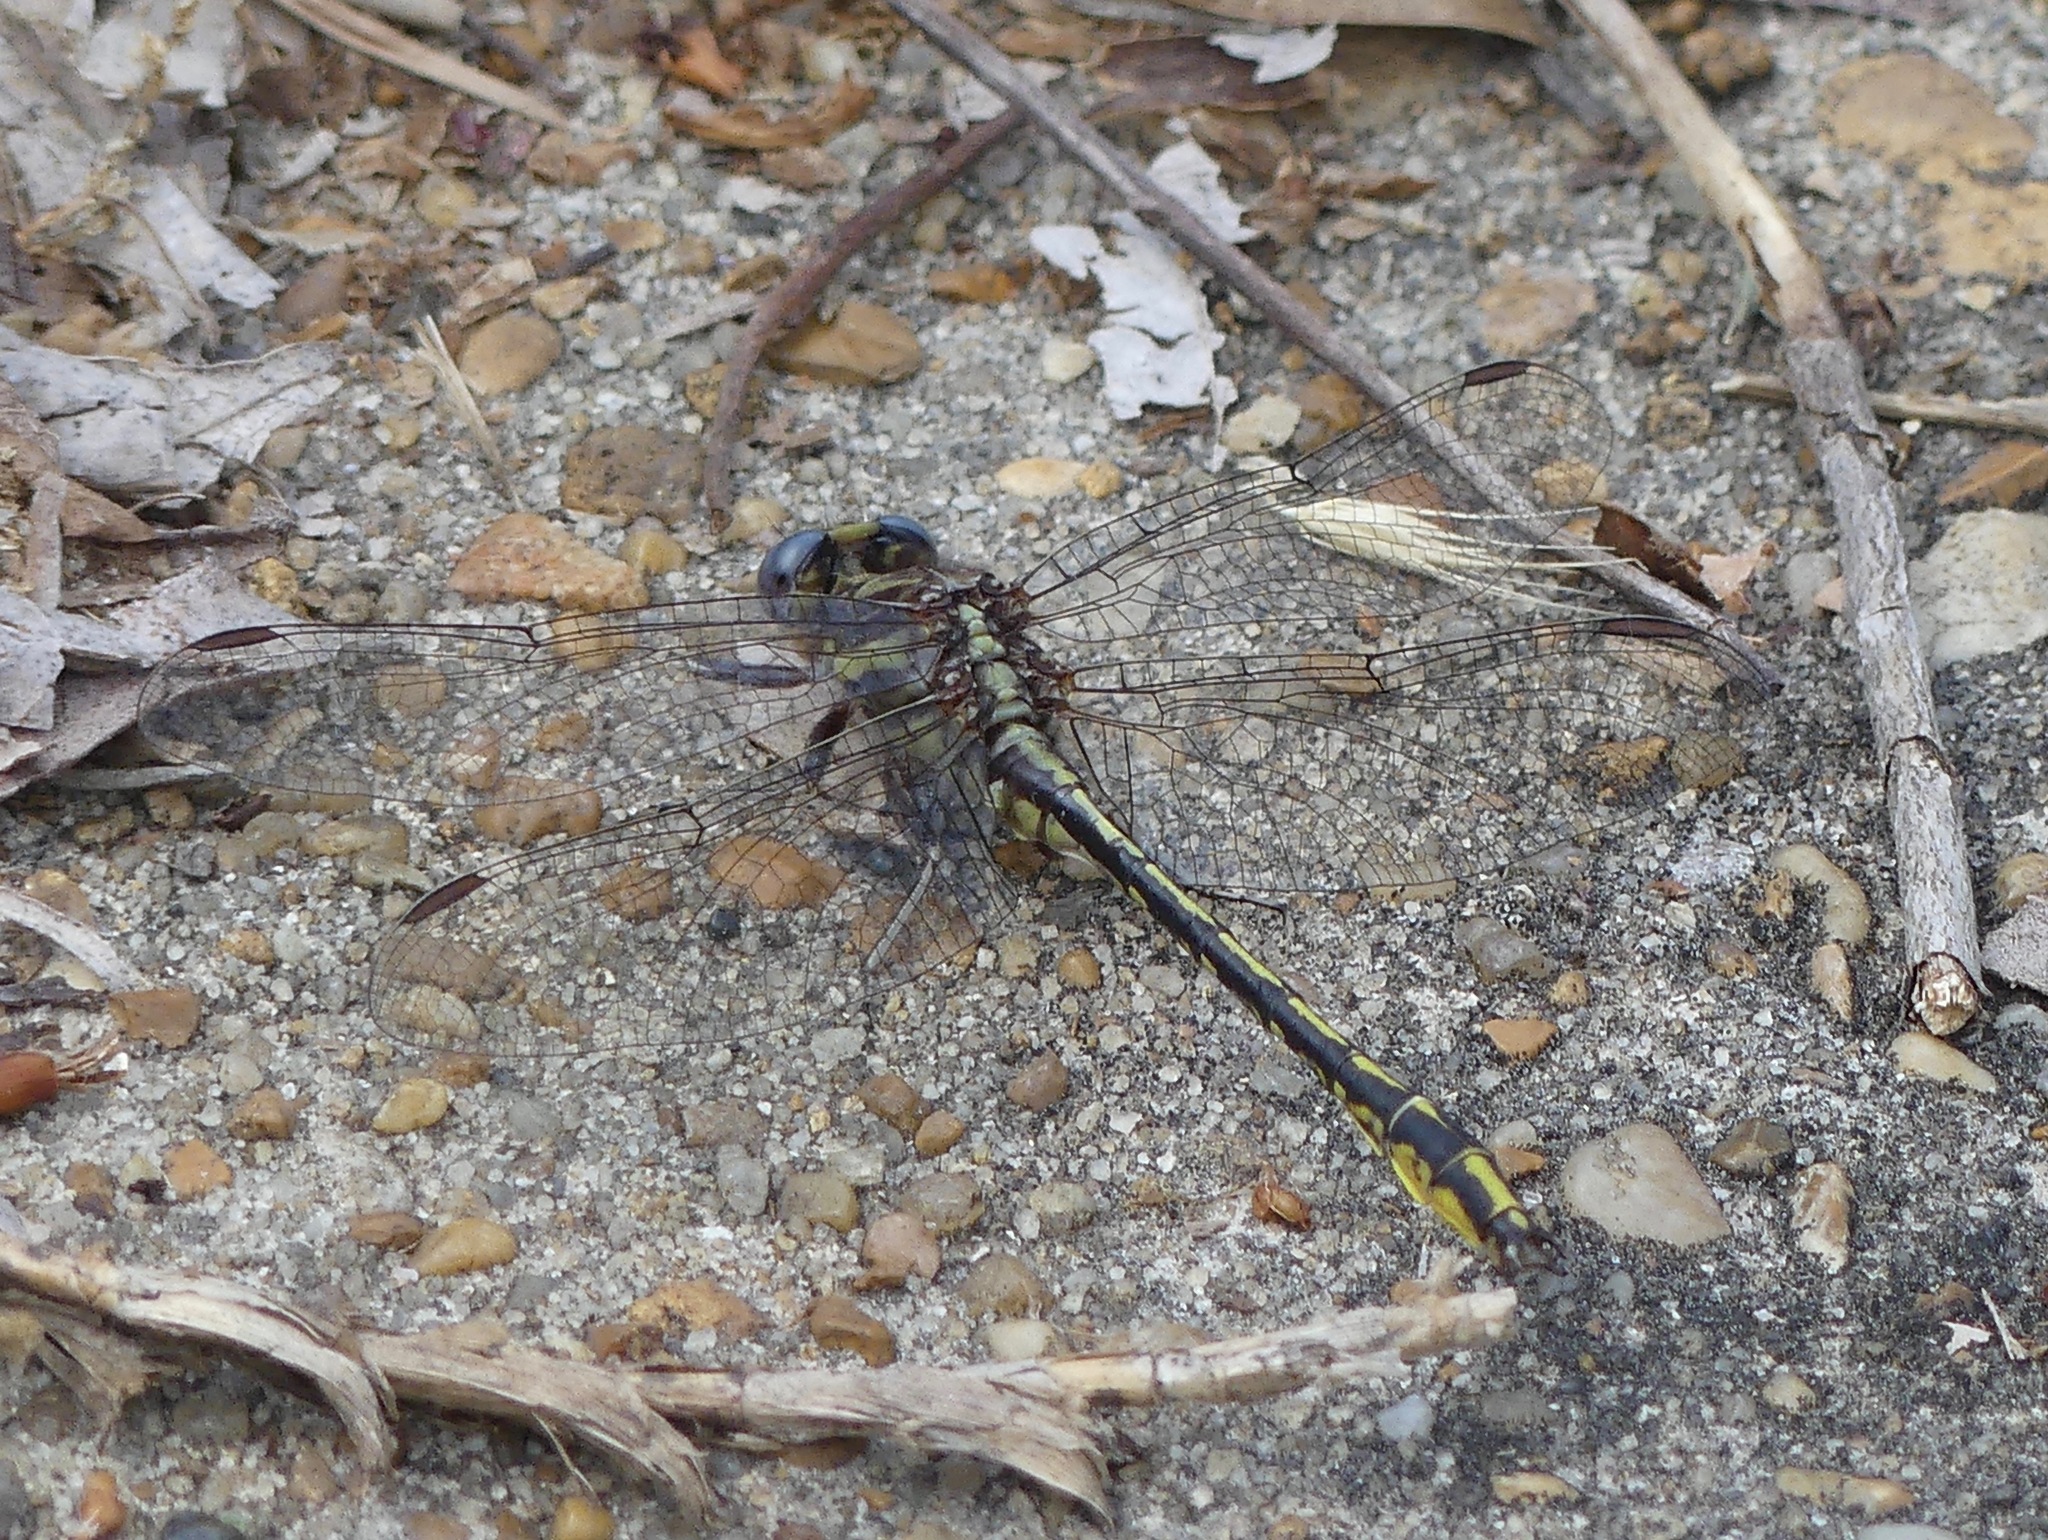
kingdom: Animalia
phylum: Arthropoda
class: Insecta
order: Odonata
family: Gomphidae
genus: Phanogomphus
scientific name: Phanogomphus oklahomensis
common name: Oklahoma clubtail
